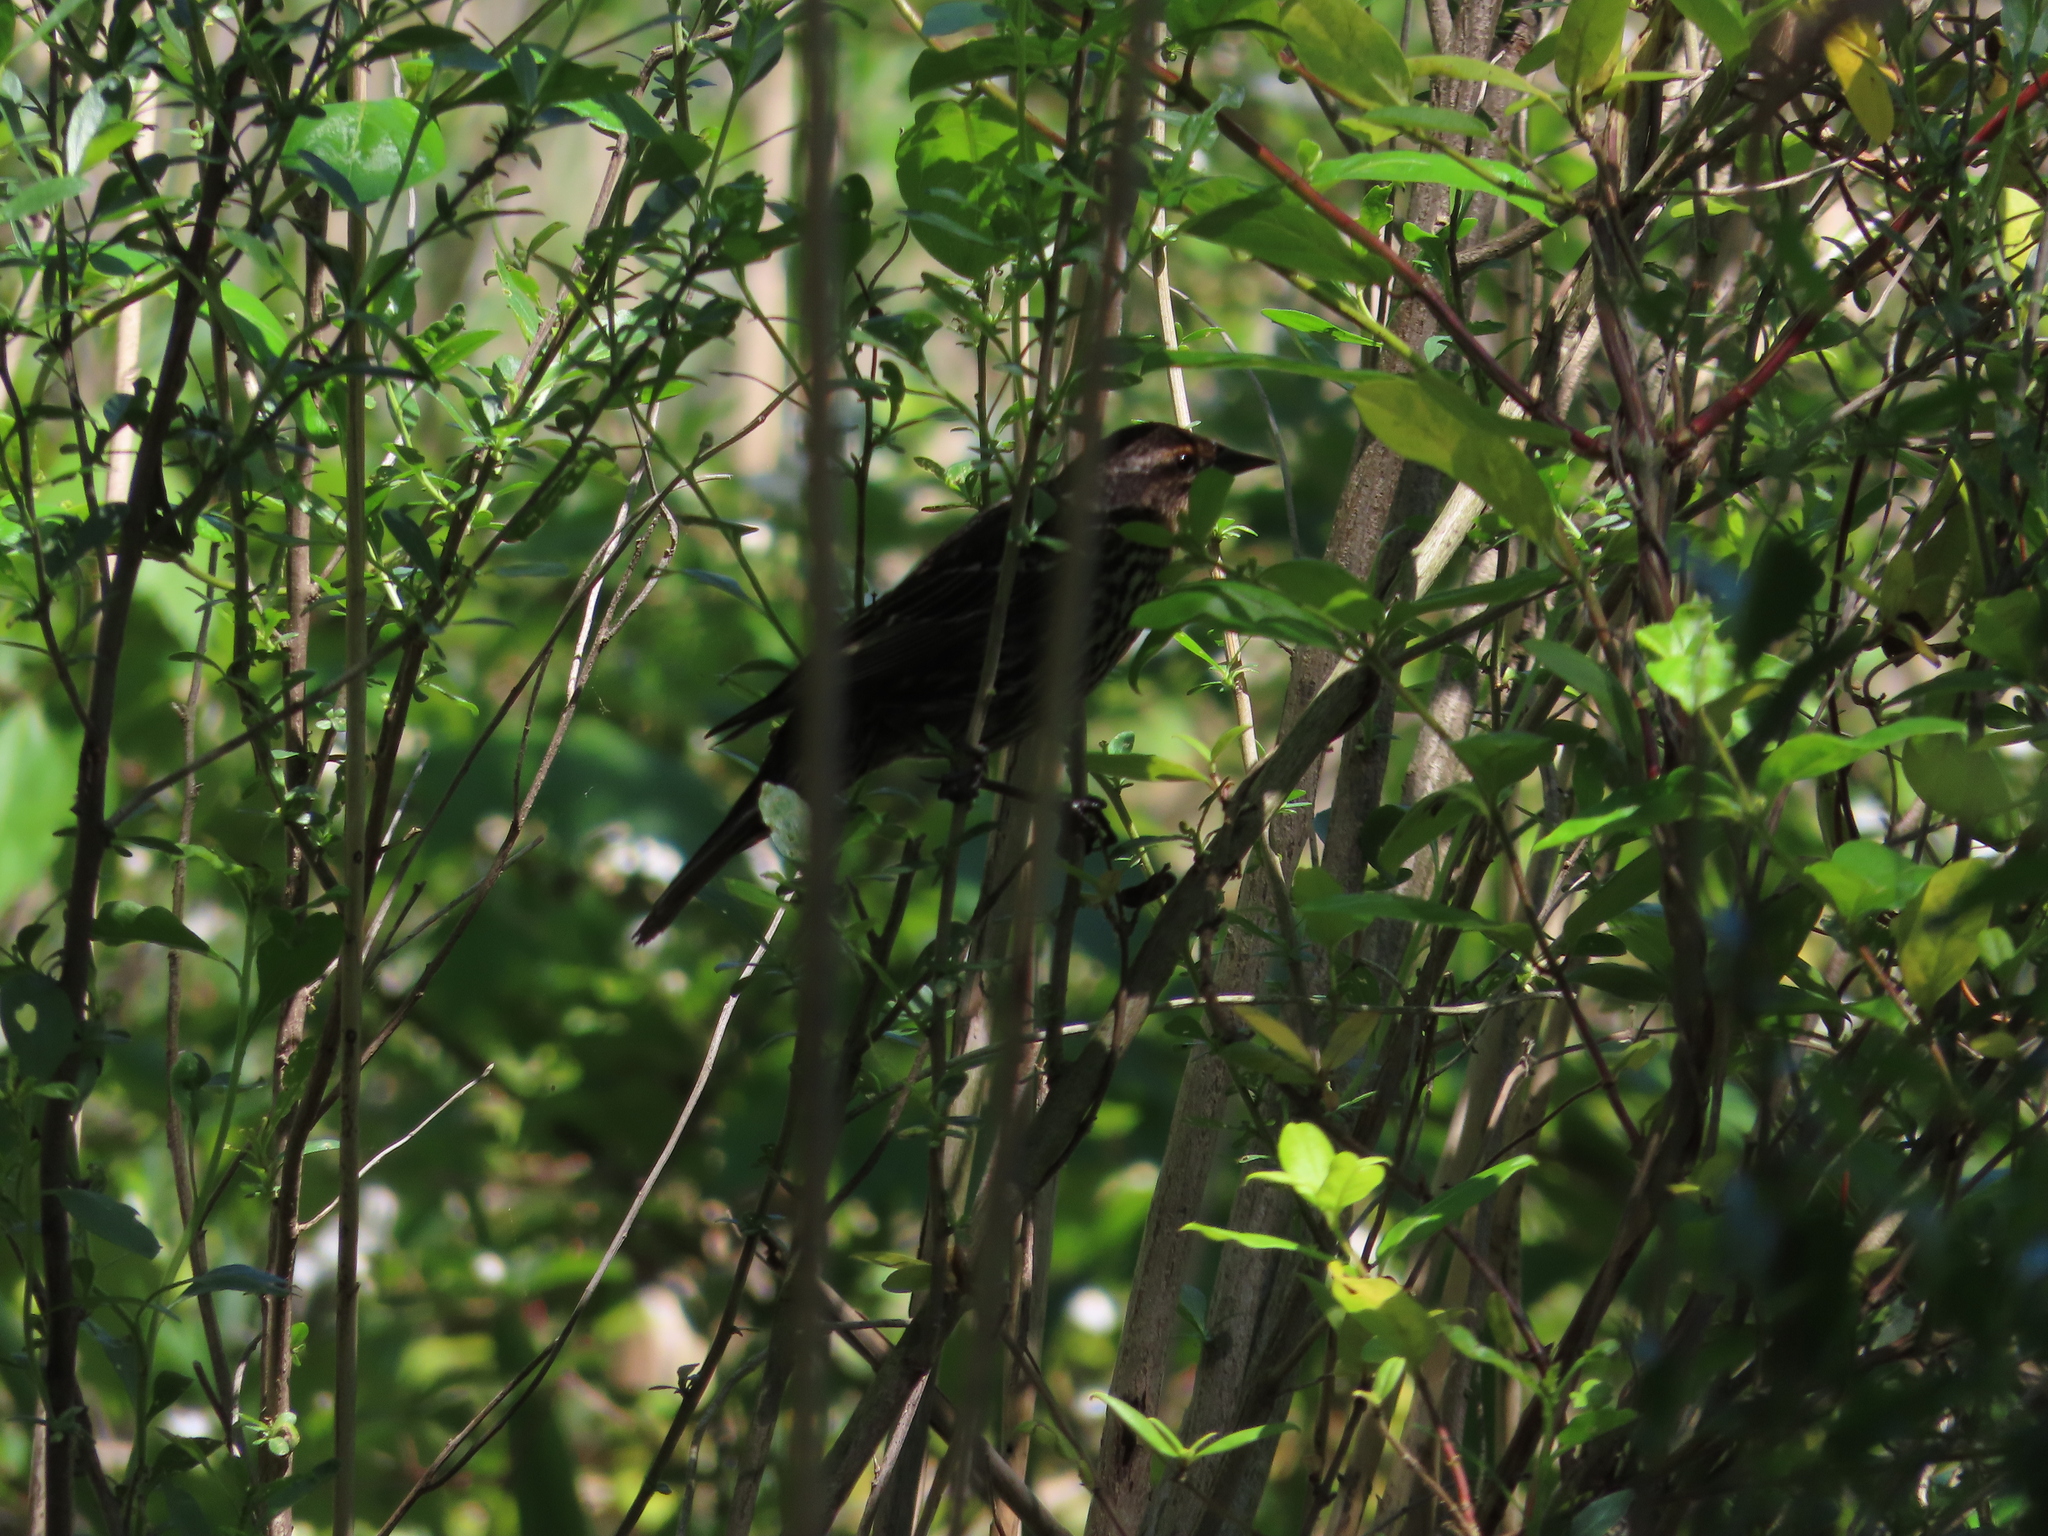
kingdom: Animalia
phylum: Chordata
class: Aves
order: Passeriformes
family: Icteridae
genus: Agelaius
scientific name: Agelaius phoeniceus
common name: Red-winged blackbird
